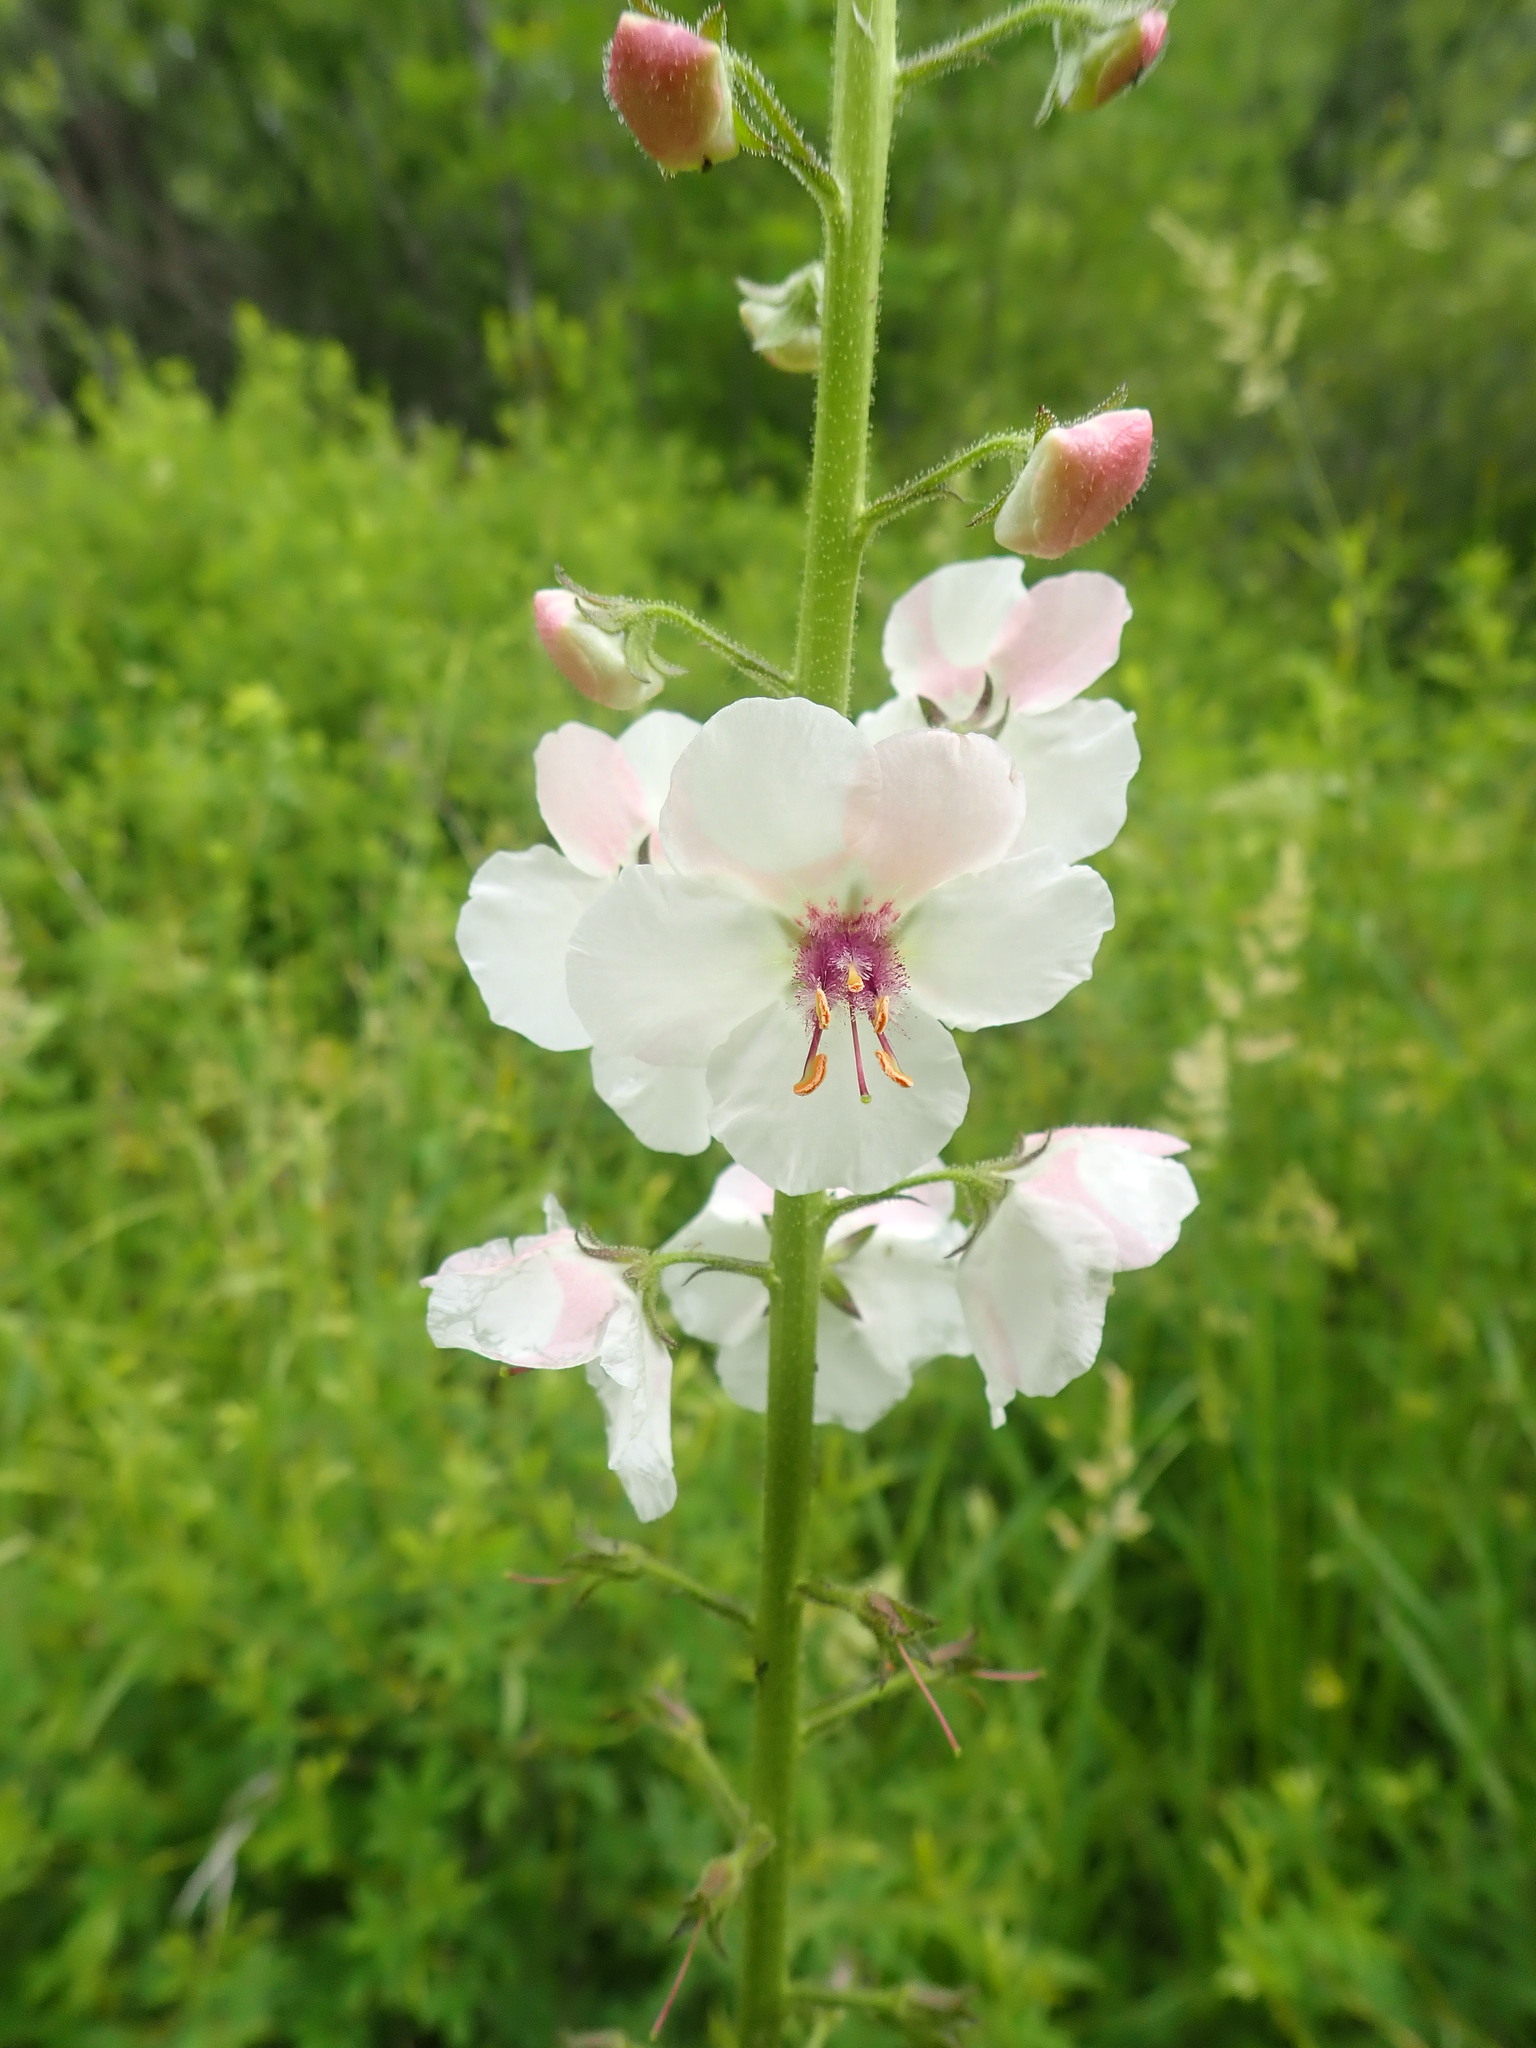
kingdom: Plantae
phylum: Tracheophyta
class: Magnoliopsida
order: Lamiales
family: Scrophulariaceae
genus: Verbascum
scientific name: Verbascum blattaria
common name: Moth mullein
